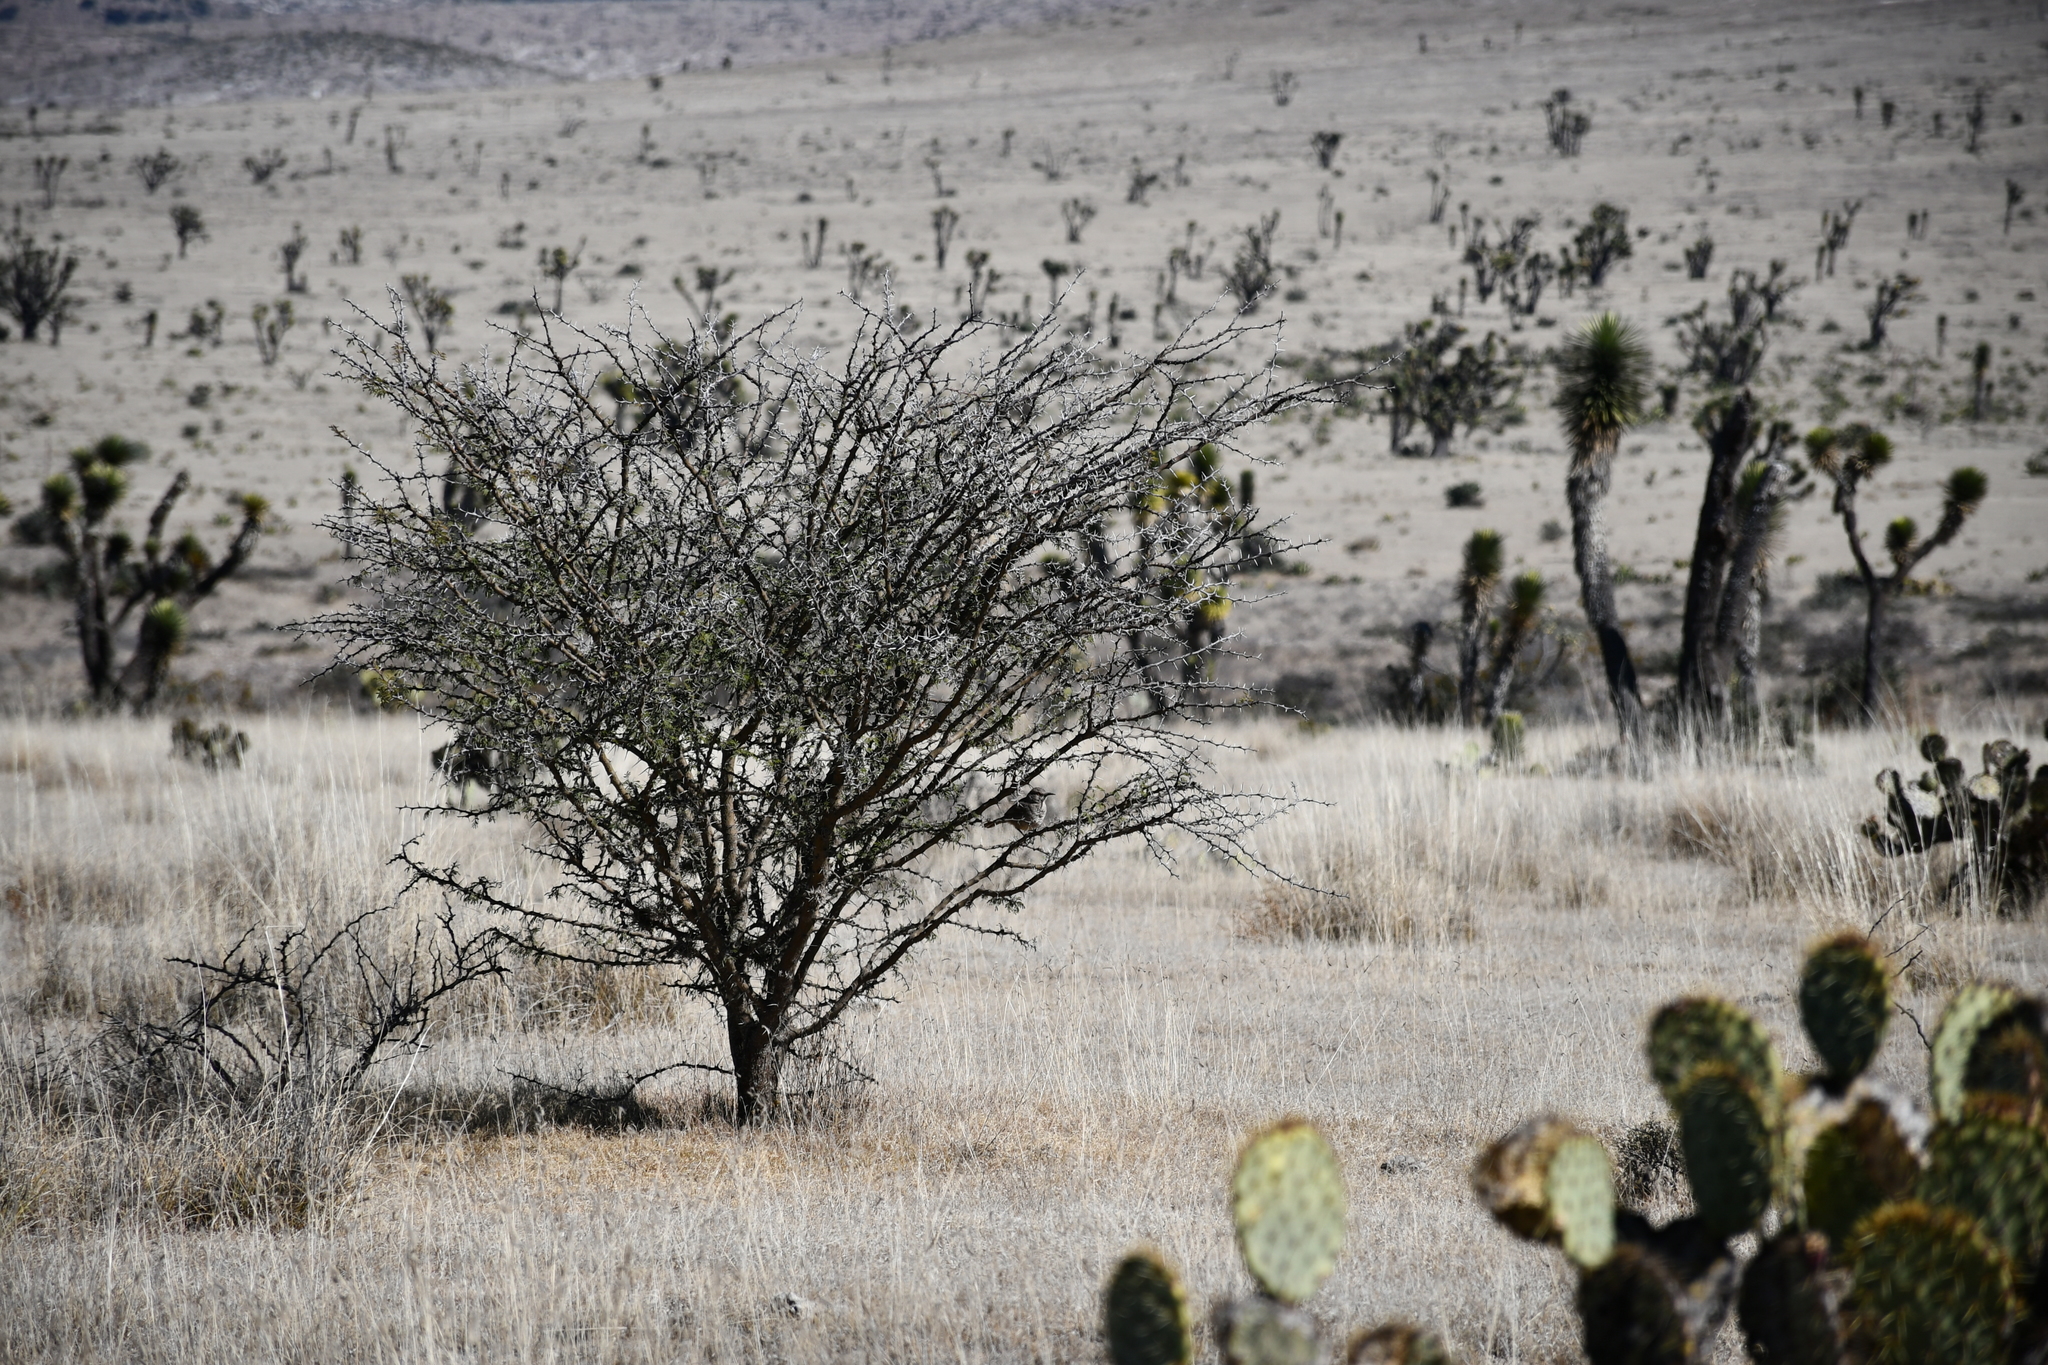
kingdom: Animalia
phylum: Chordata
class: Aves
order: Passeriformes
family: Mimidae
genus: Toxostoma
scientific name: Toxostoma curvirostre
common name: Curve-billed thrasher
